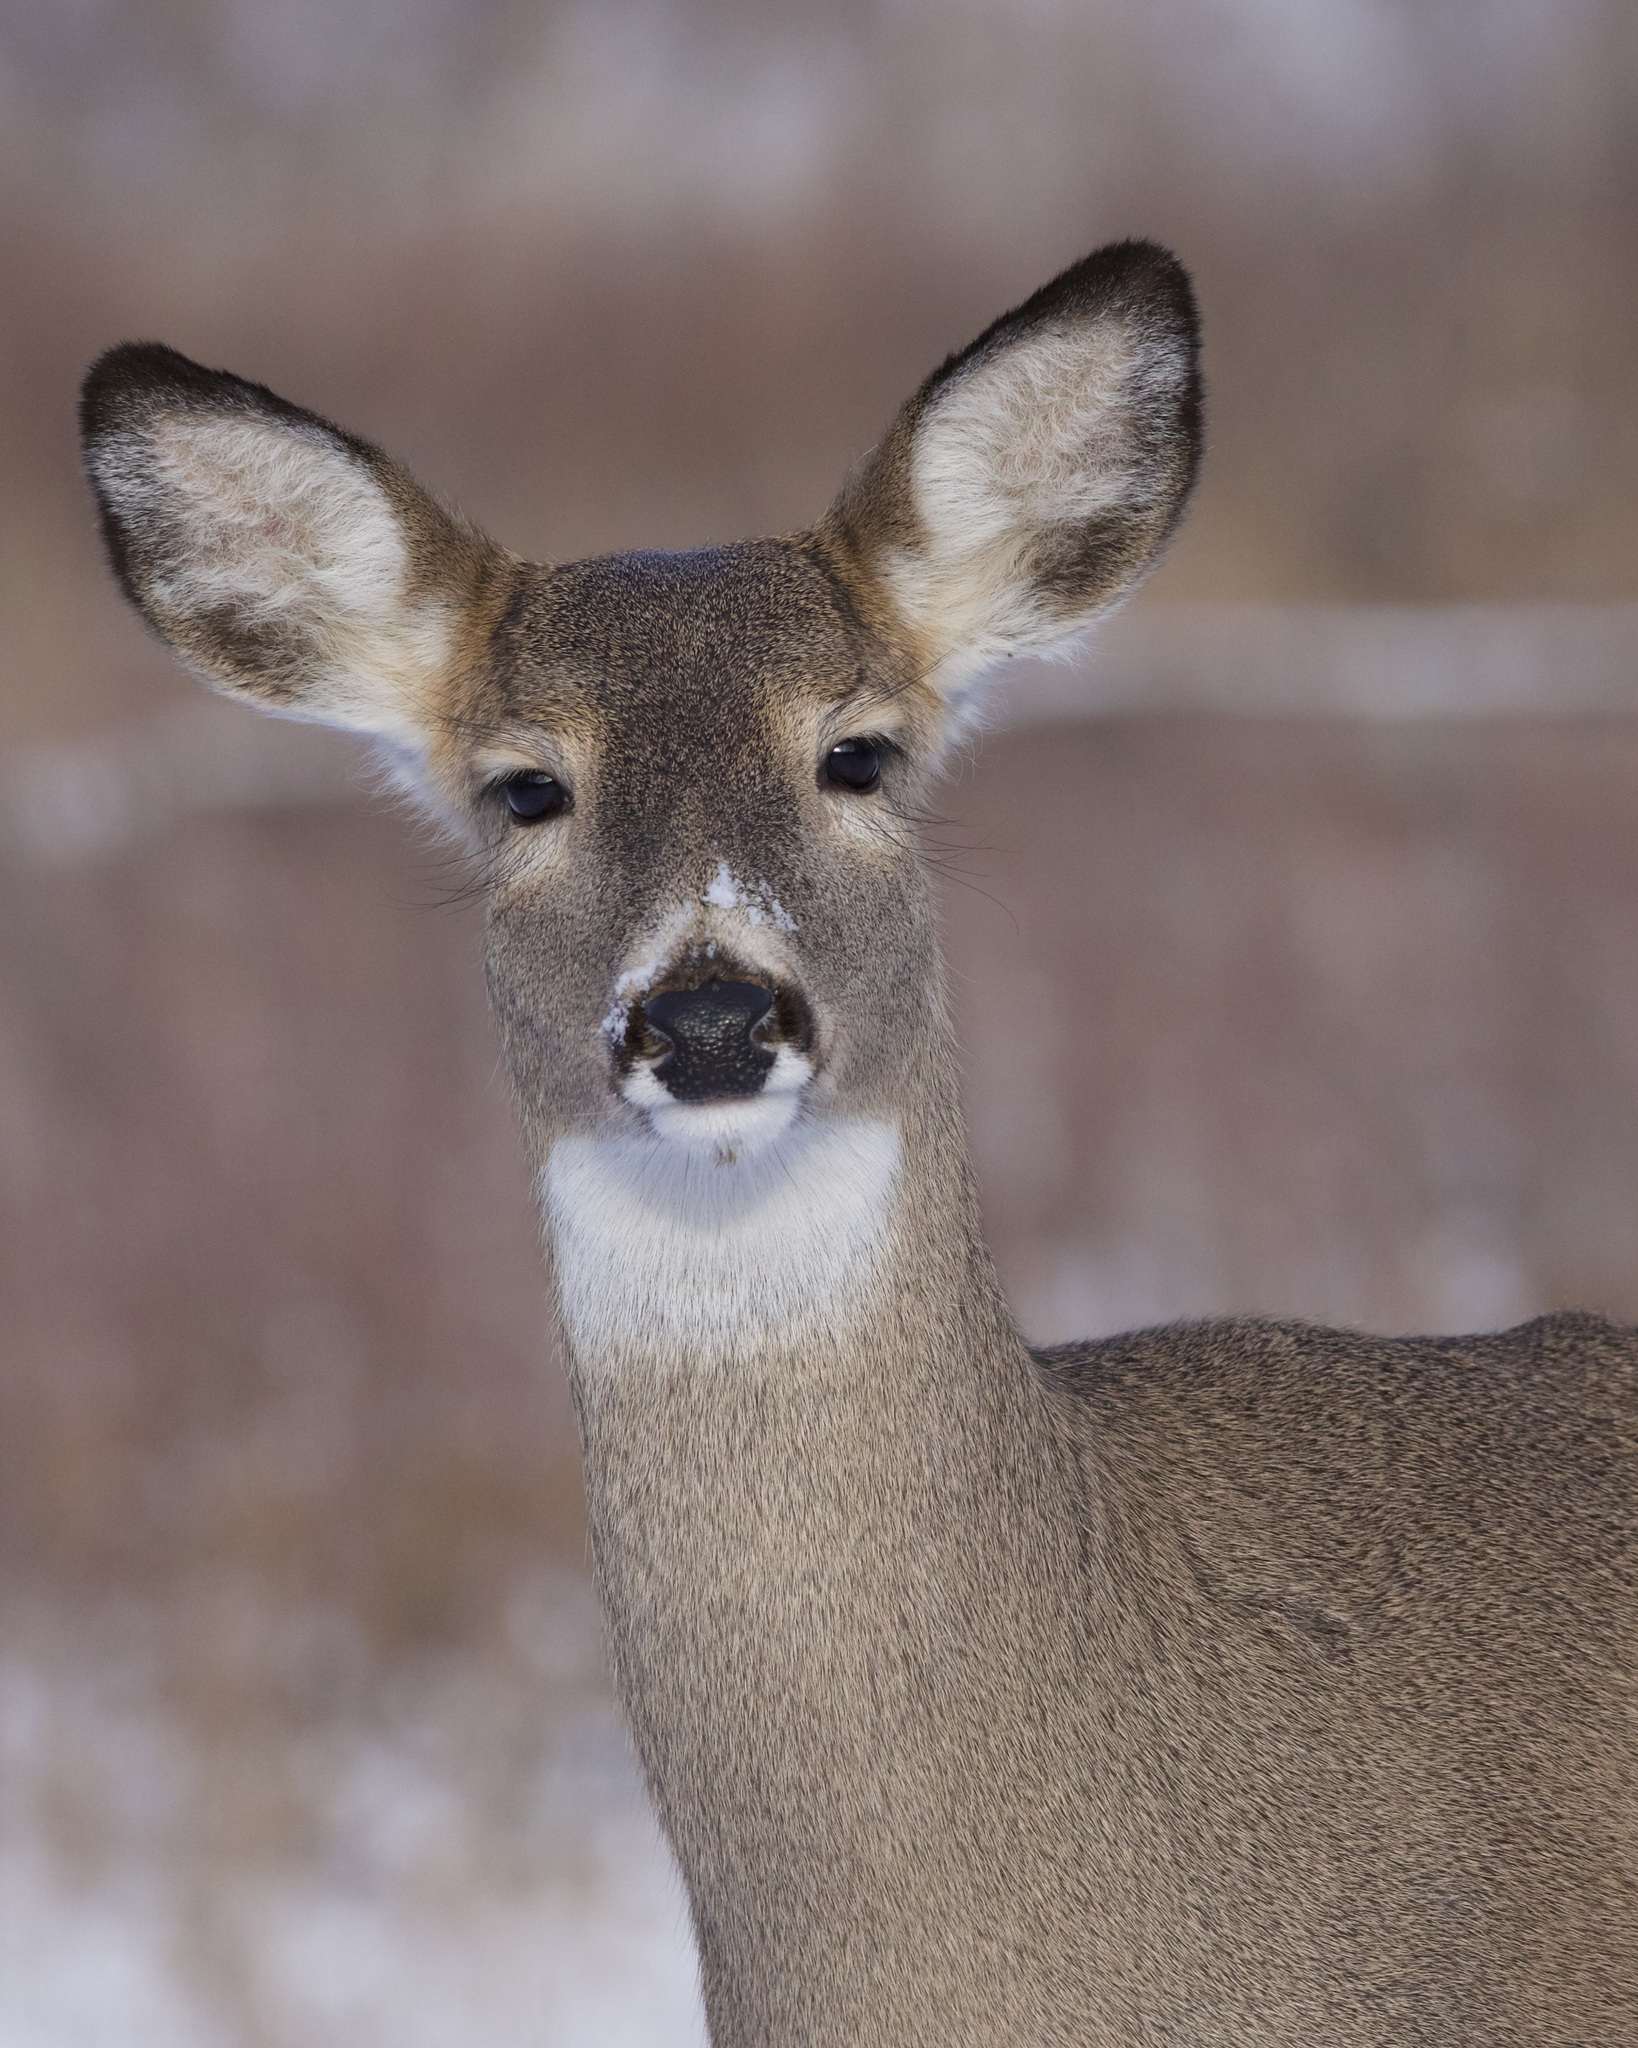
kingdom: Animalia
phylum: Chordata
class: Mammalia
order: Artiodactyla
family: Cervidae
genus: Odocoileus
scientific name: Odocoileus virginianus
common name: White-tailed deer
